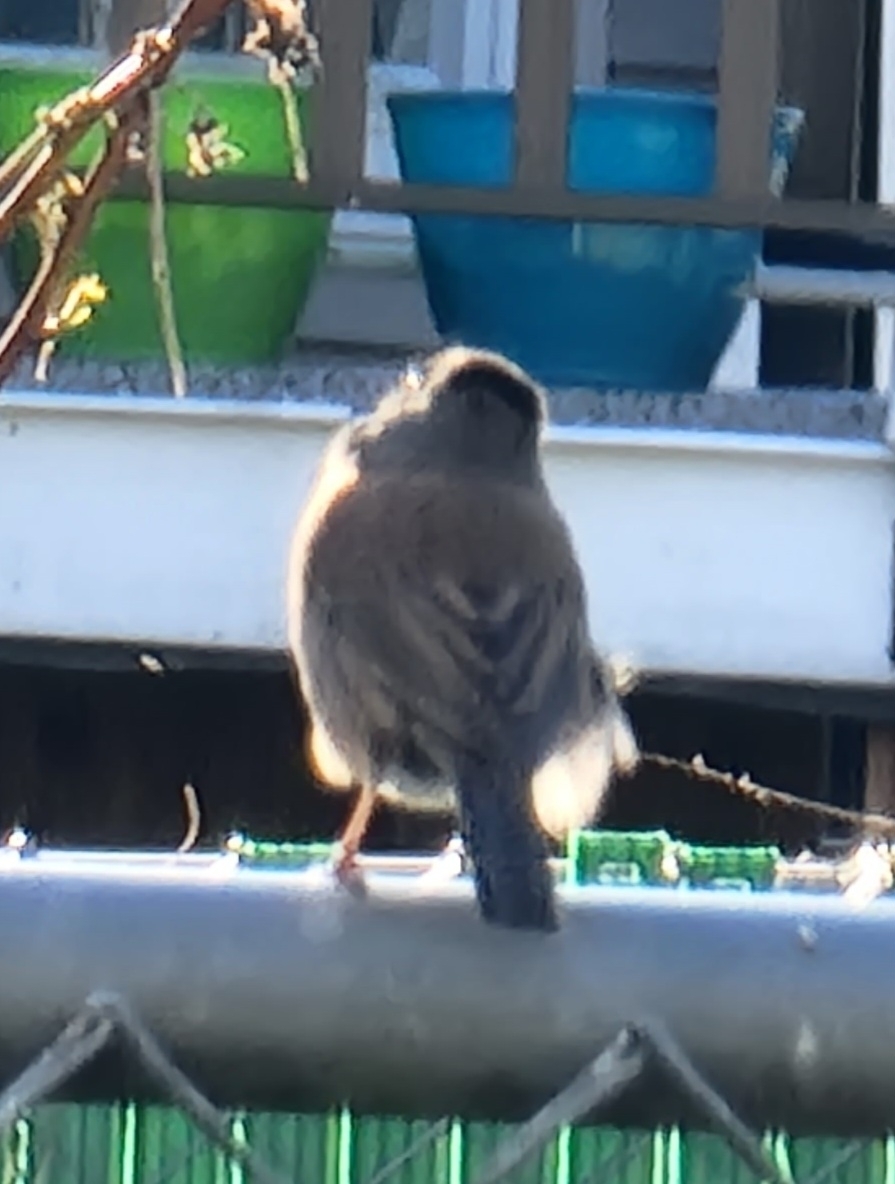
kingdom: Animalia
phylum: Chordata
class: Aves
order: Passeriformes
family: Passerellidae
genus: Junco
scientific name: Junco hyemalis
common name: Dark-eyed junco
